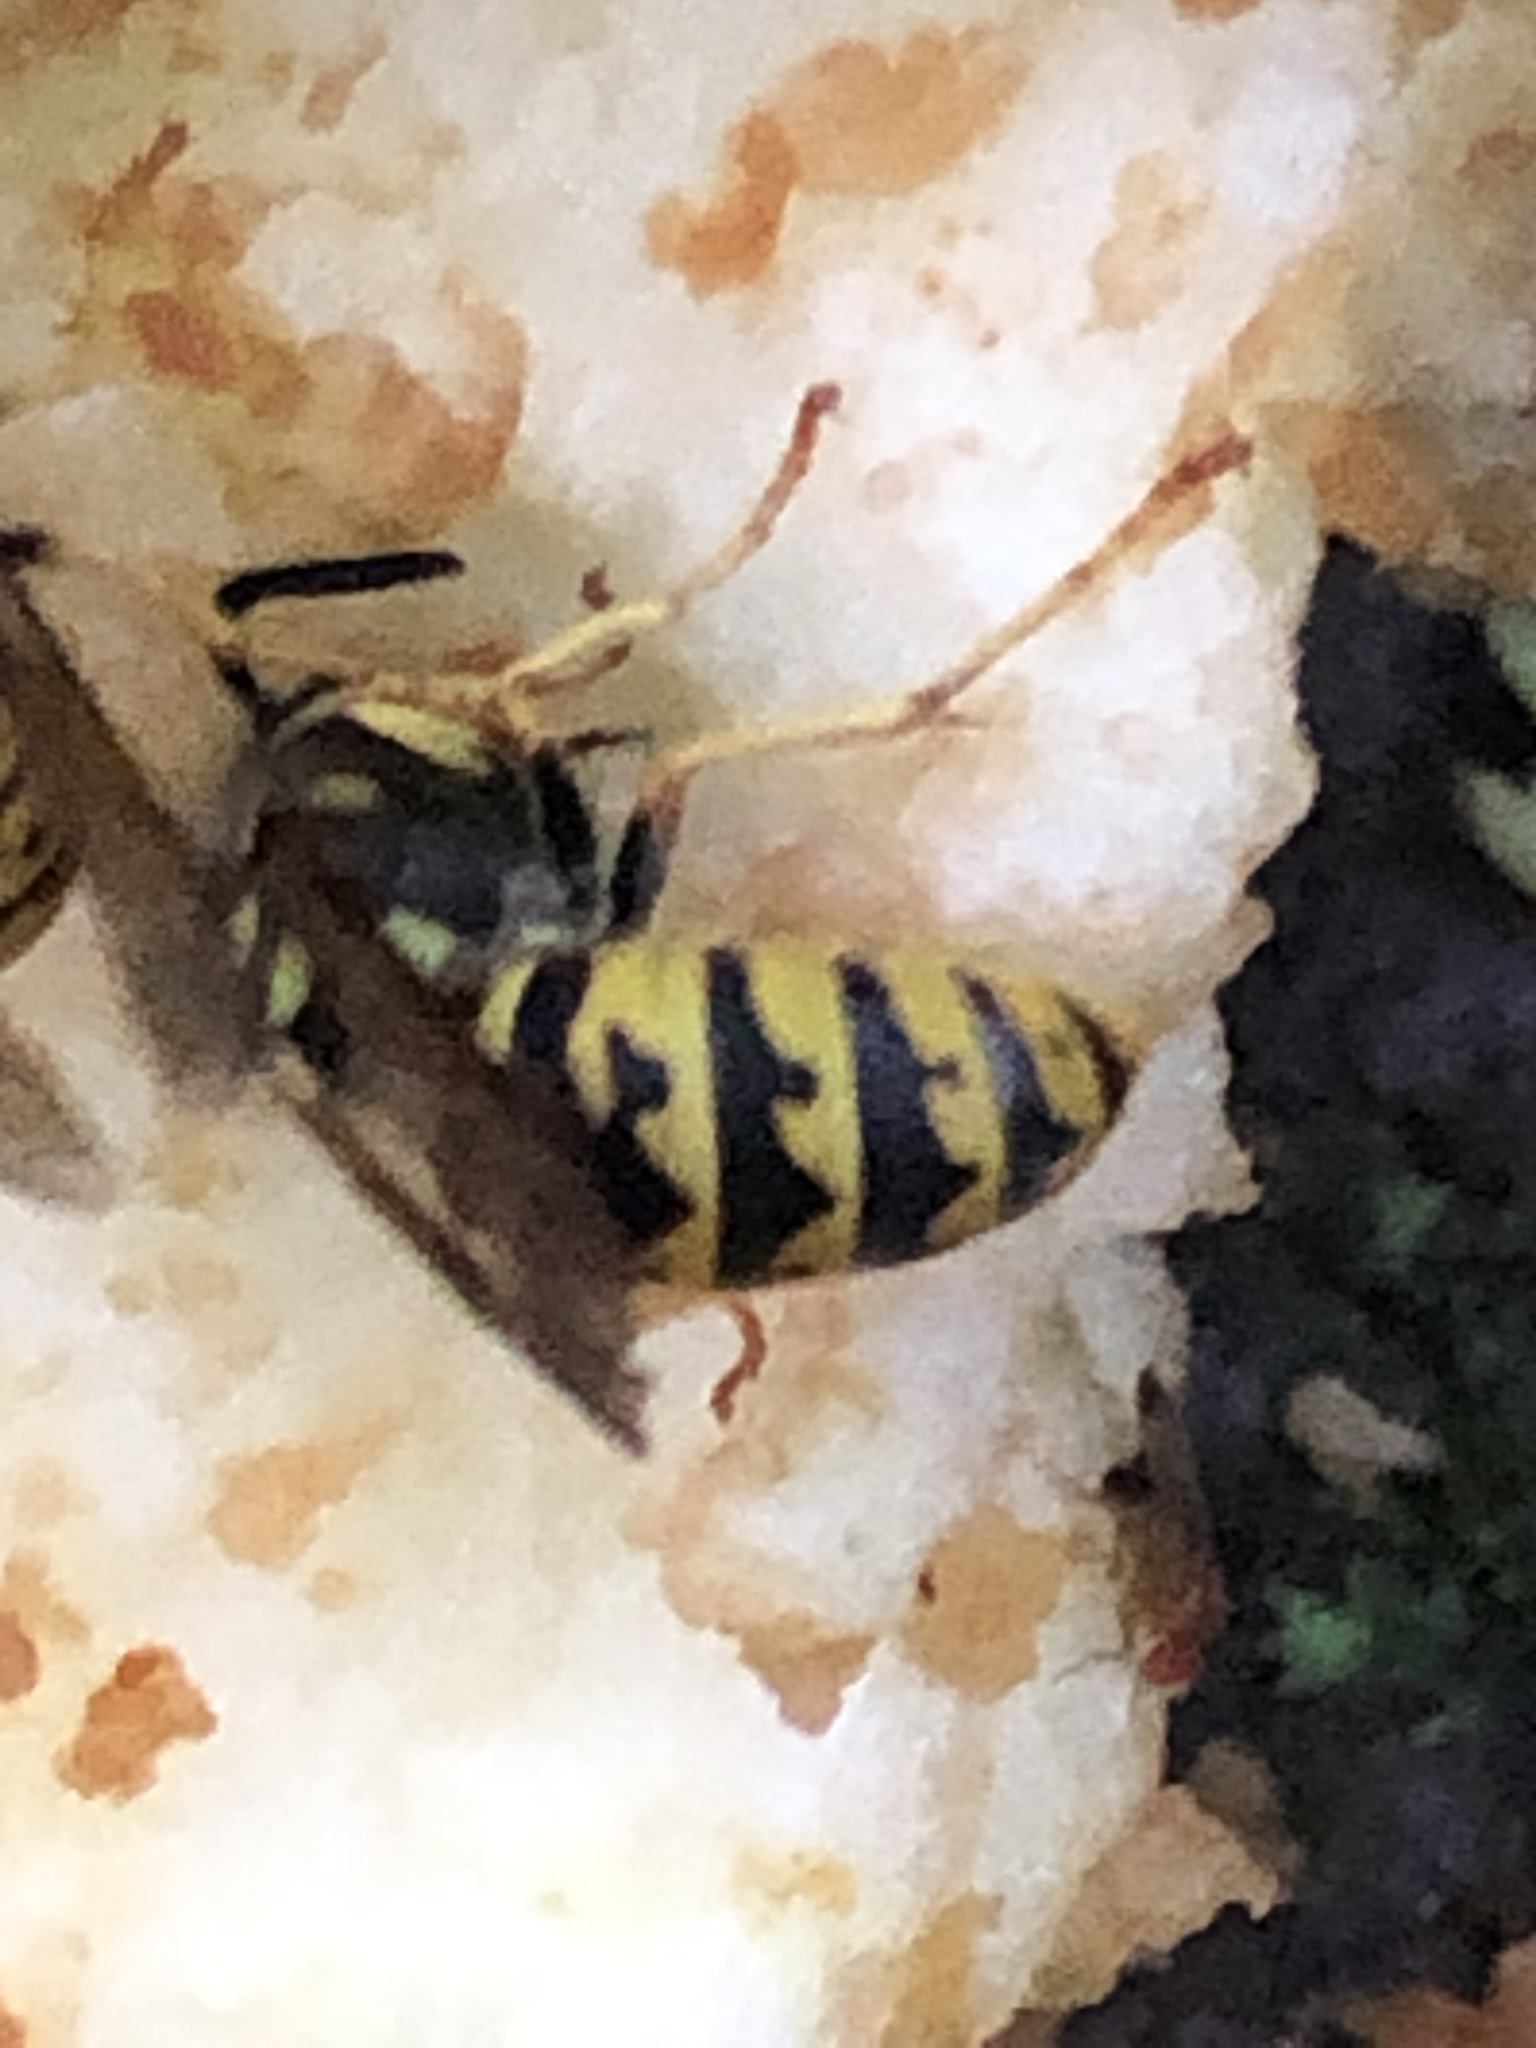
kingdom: Animalia
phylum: Arthropoda
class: Insecta
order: Hymenoptera
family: Vespidae
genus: Vespula
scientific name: Vespula germanica
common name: German wasp
